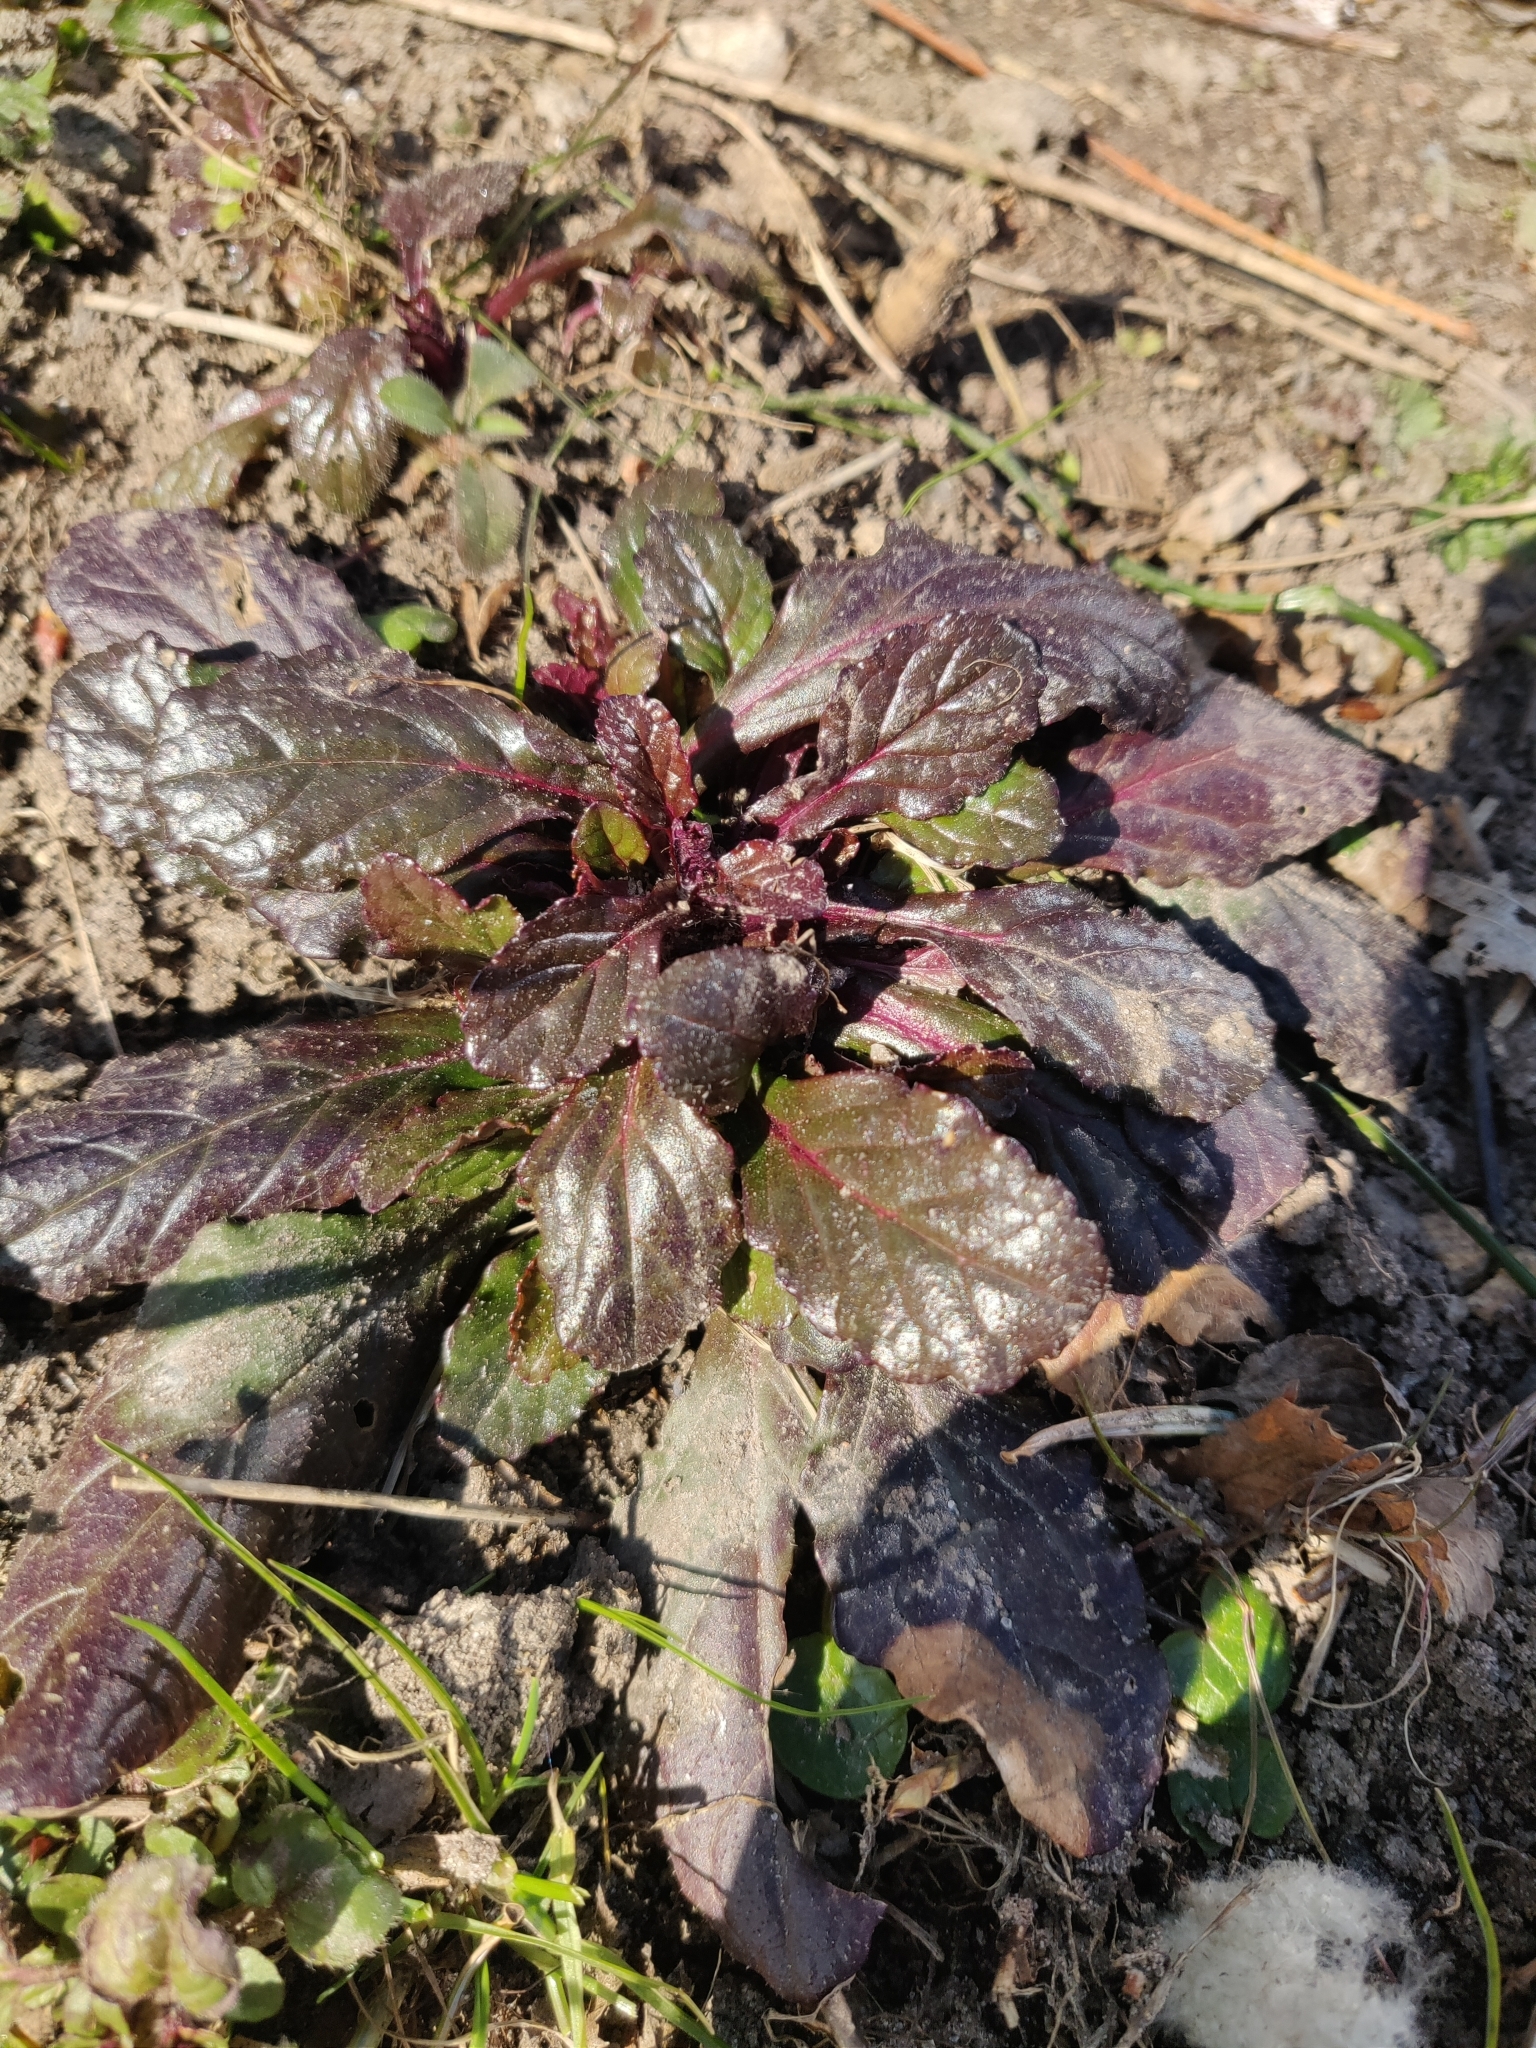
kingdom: Plantae
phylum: Tracheophyta
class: Magnoliopsida
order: Lamiales
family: Lamiaceae
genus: Ajuga
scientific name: Ajuga reptans
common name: Bugle
